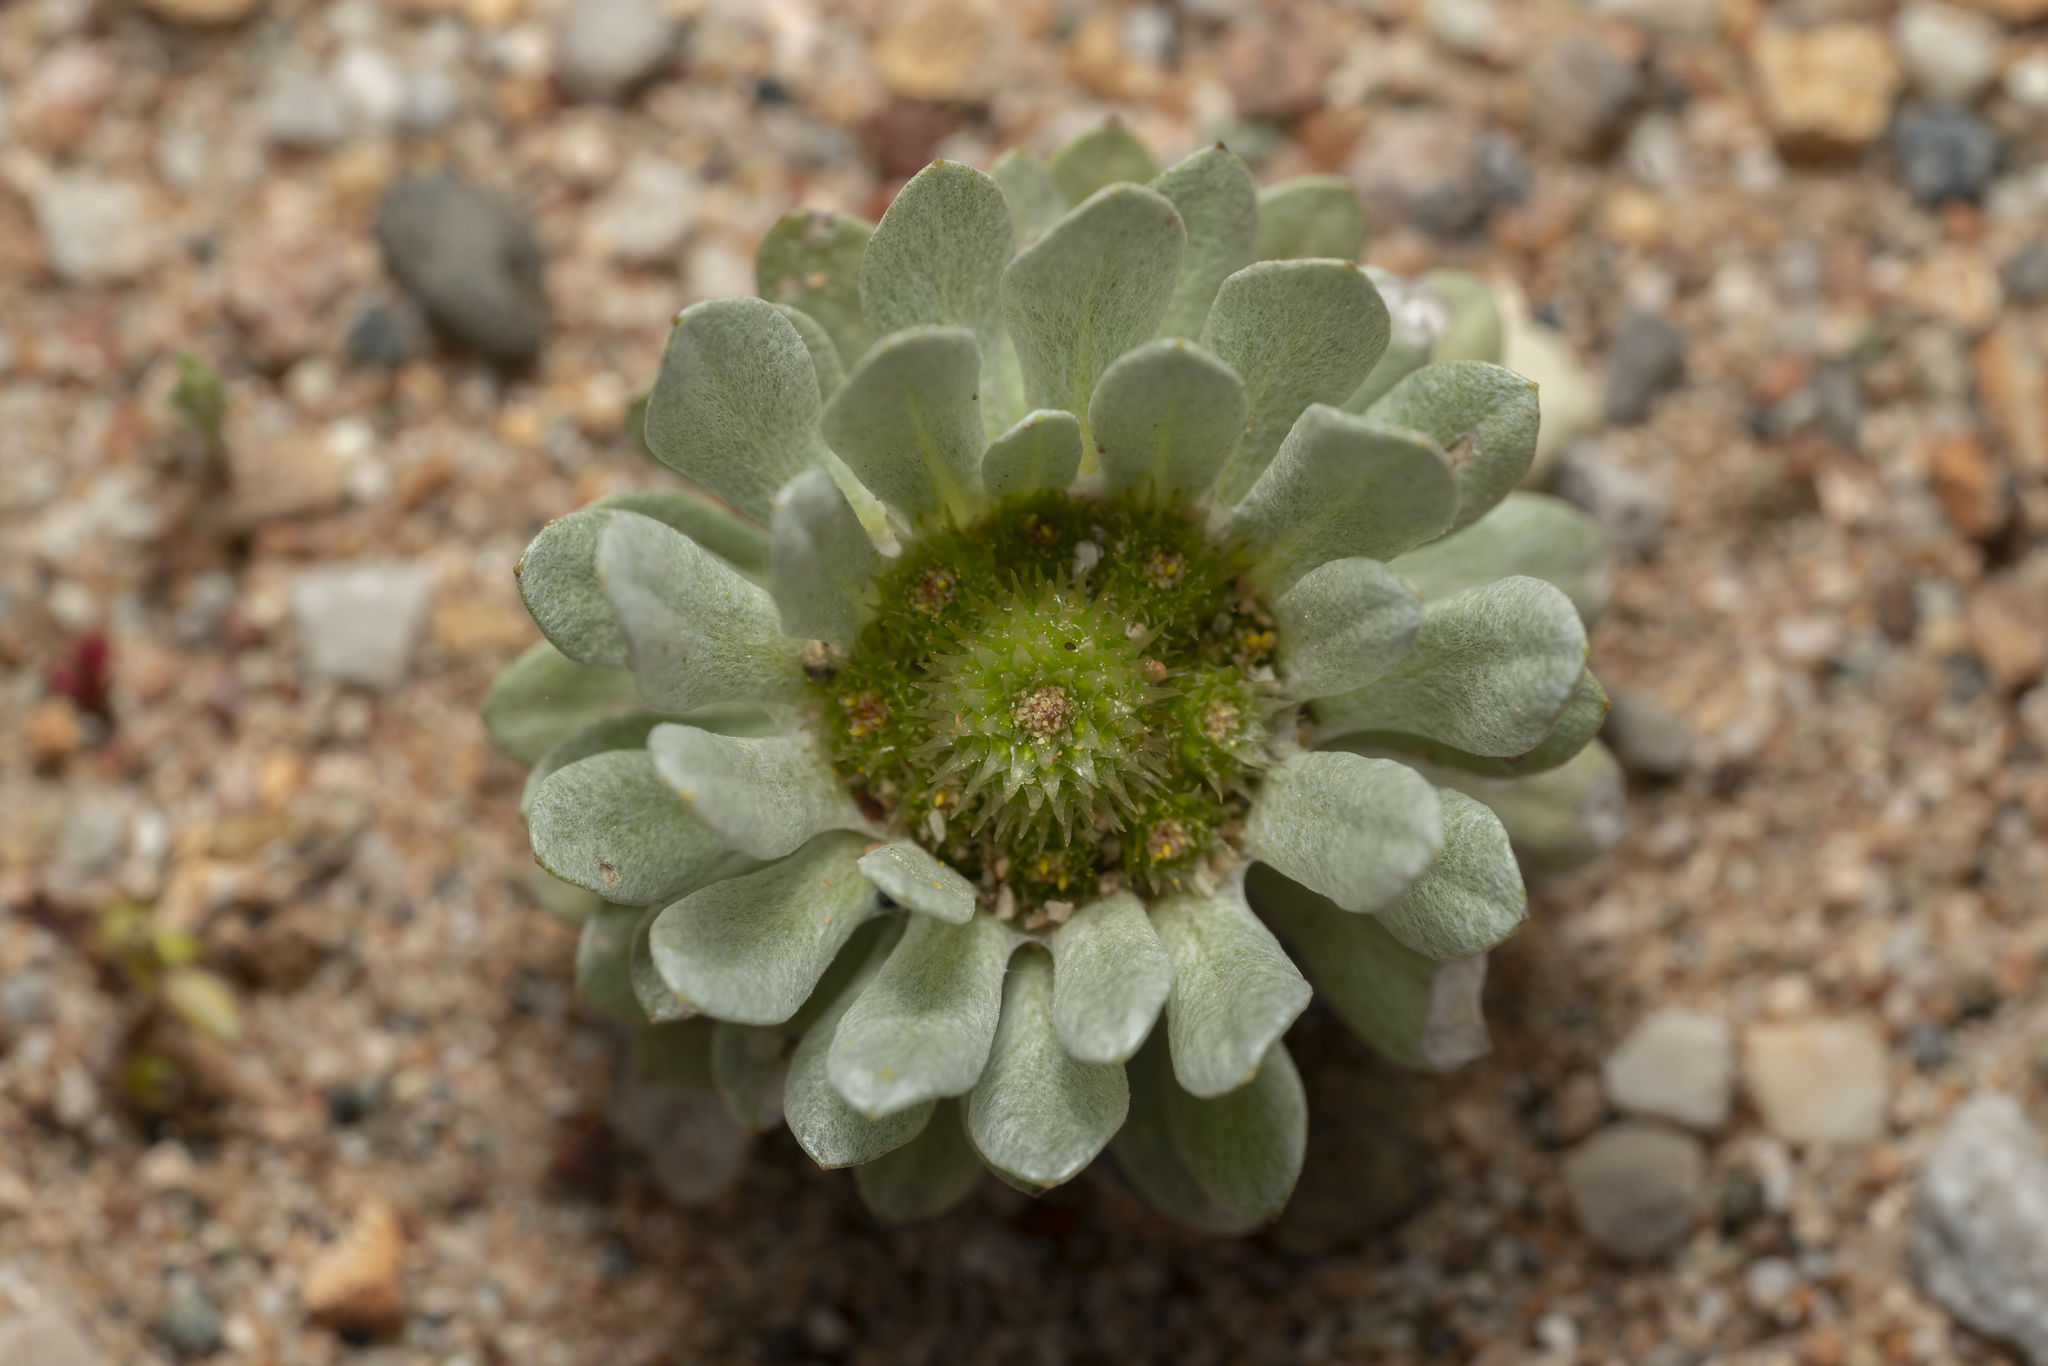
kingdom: Plantae
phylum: Tracheophyta
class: Magnoliopsida
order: Asterales
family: Asteraceae
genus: Filago
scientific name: Filago pygmaea
